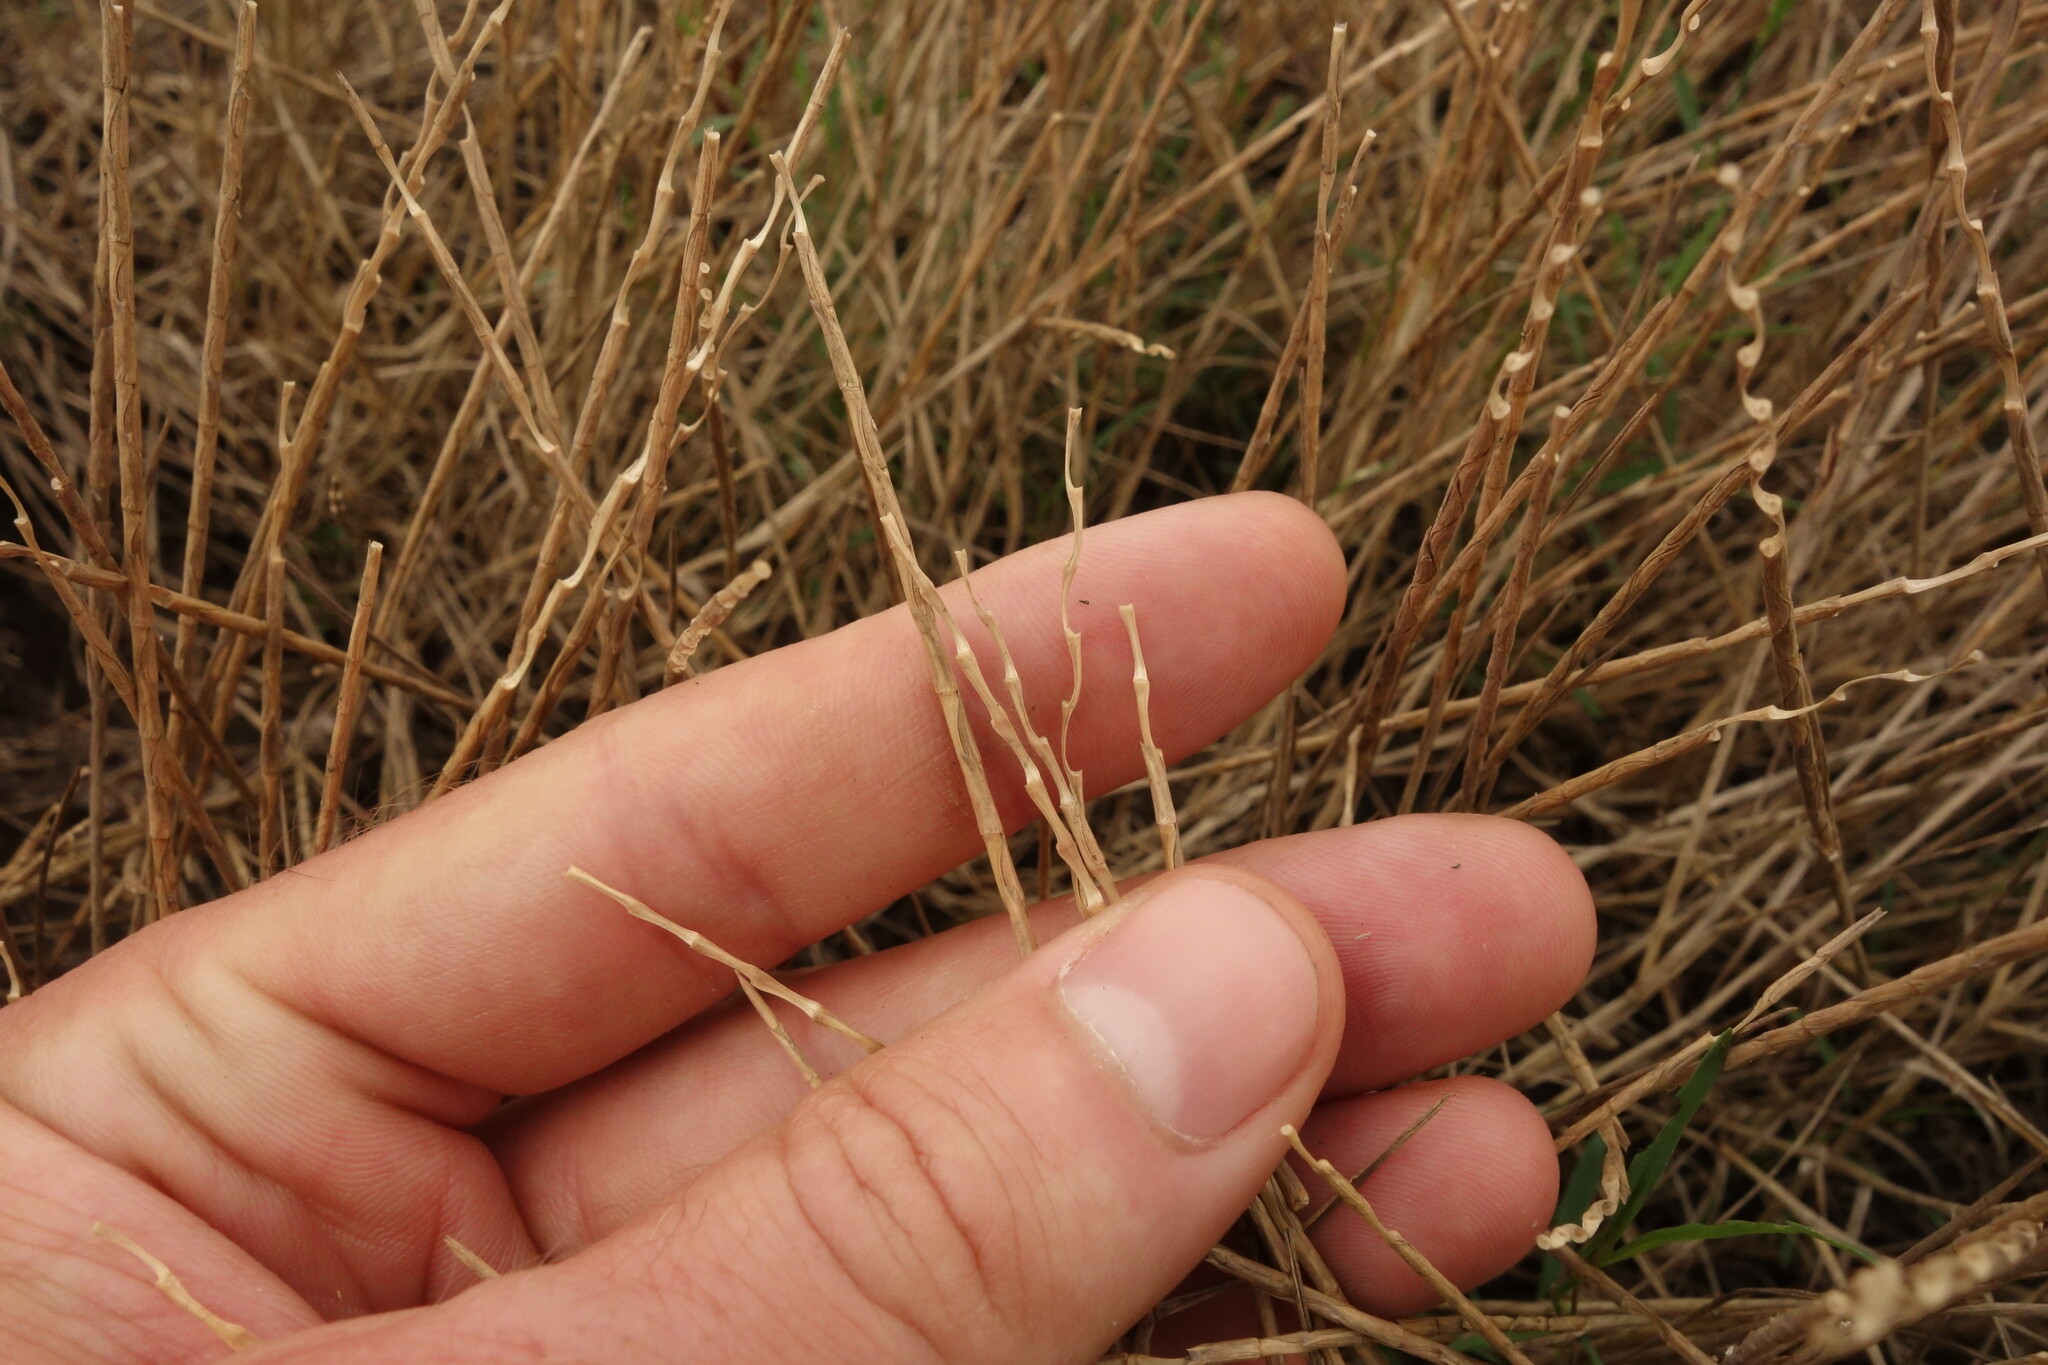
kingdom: Plantae
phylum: Tracheophyta
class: Liliopsida
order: Poales
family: Poaceae
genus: Pholiurus
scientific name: Pholiurus pannonicus
